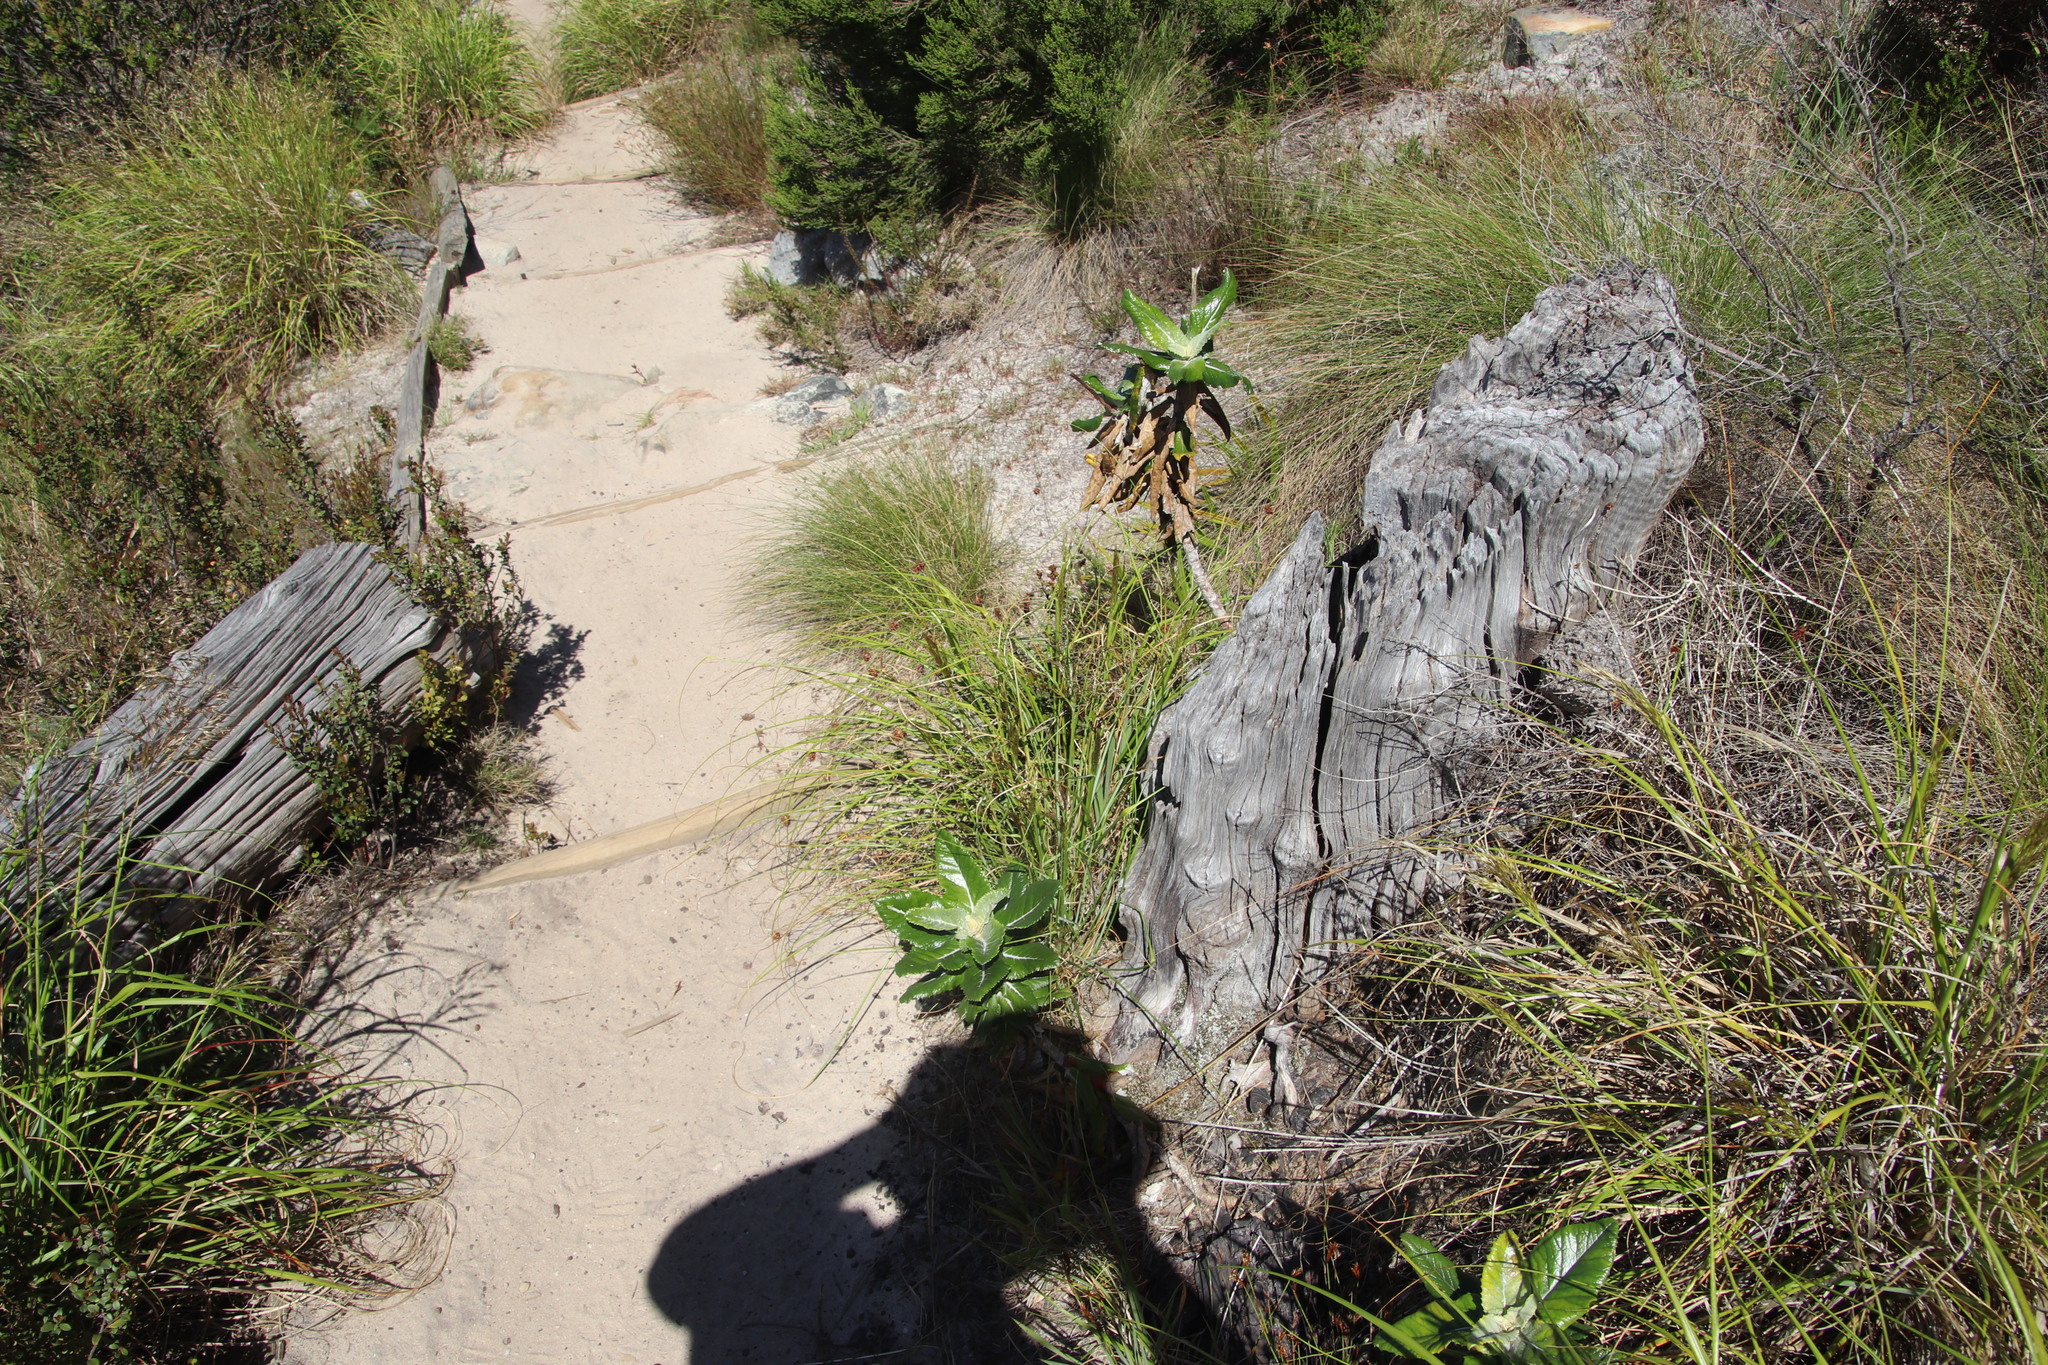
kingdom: Plantae
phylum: Tracheophyta
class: Liliopsida
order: Poales
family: Cyperaceae
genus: Ficinia
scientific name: Ficinia nigrescens
